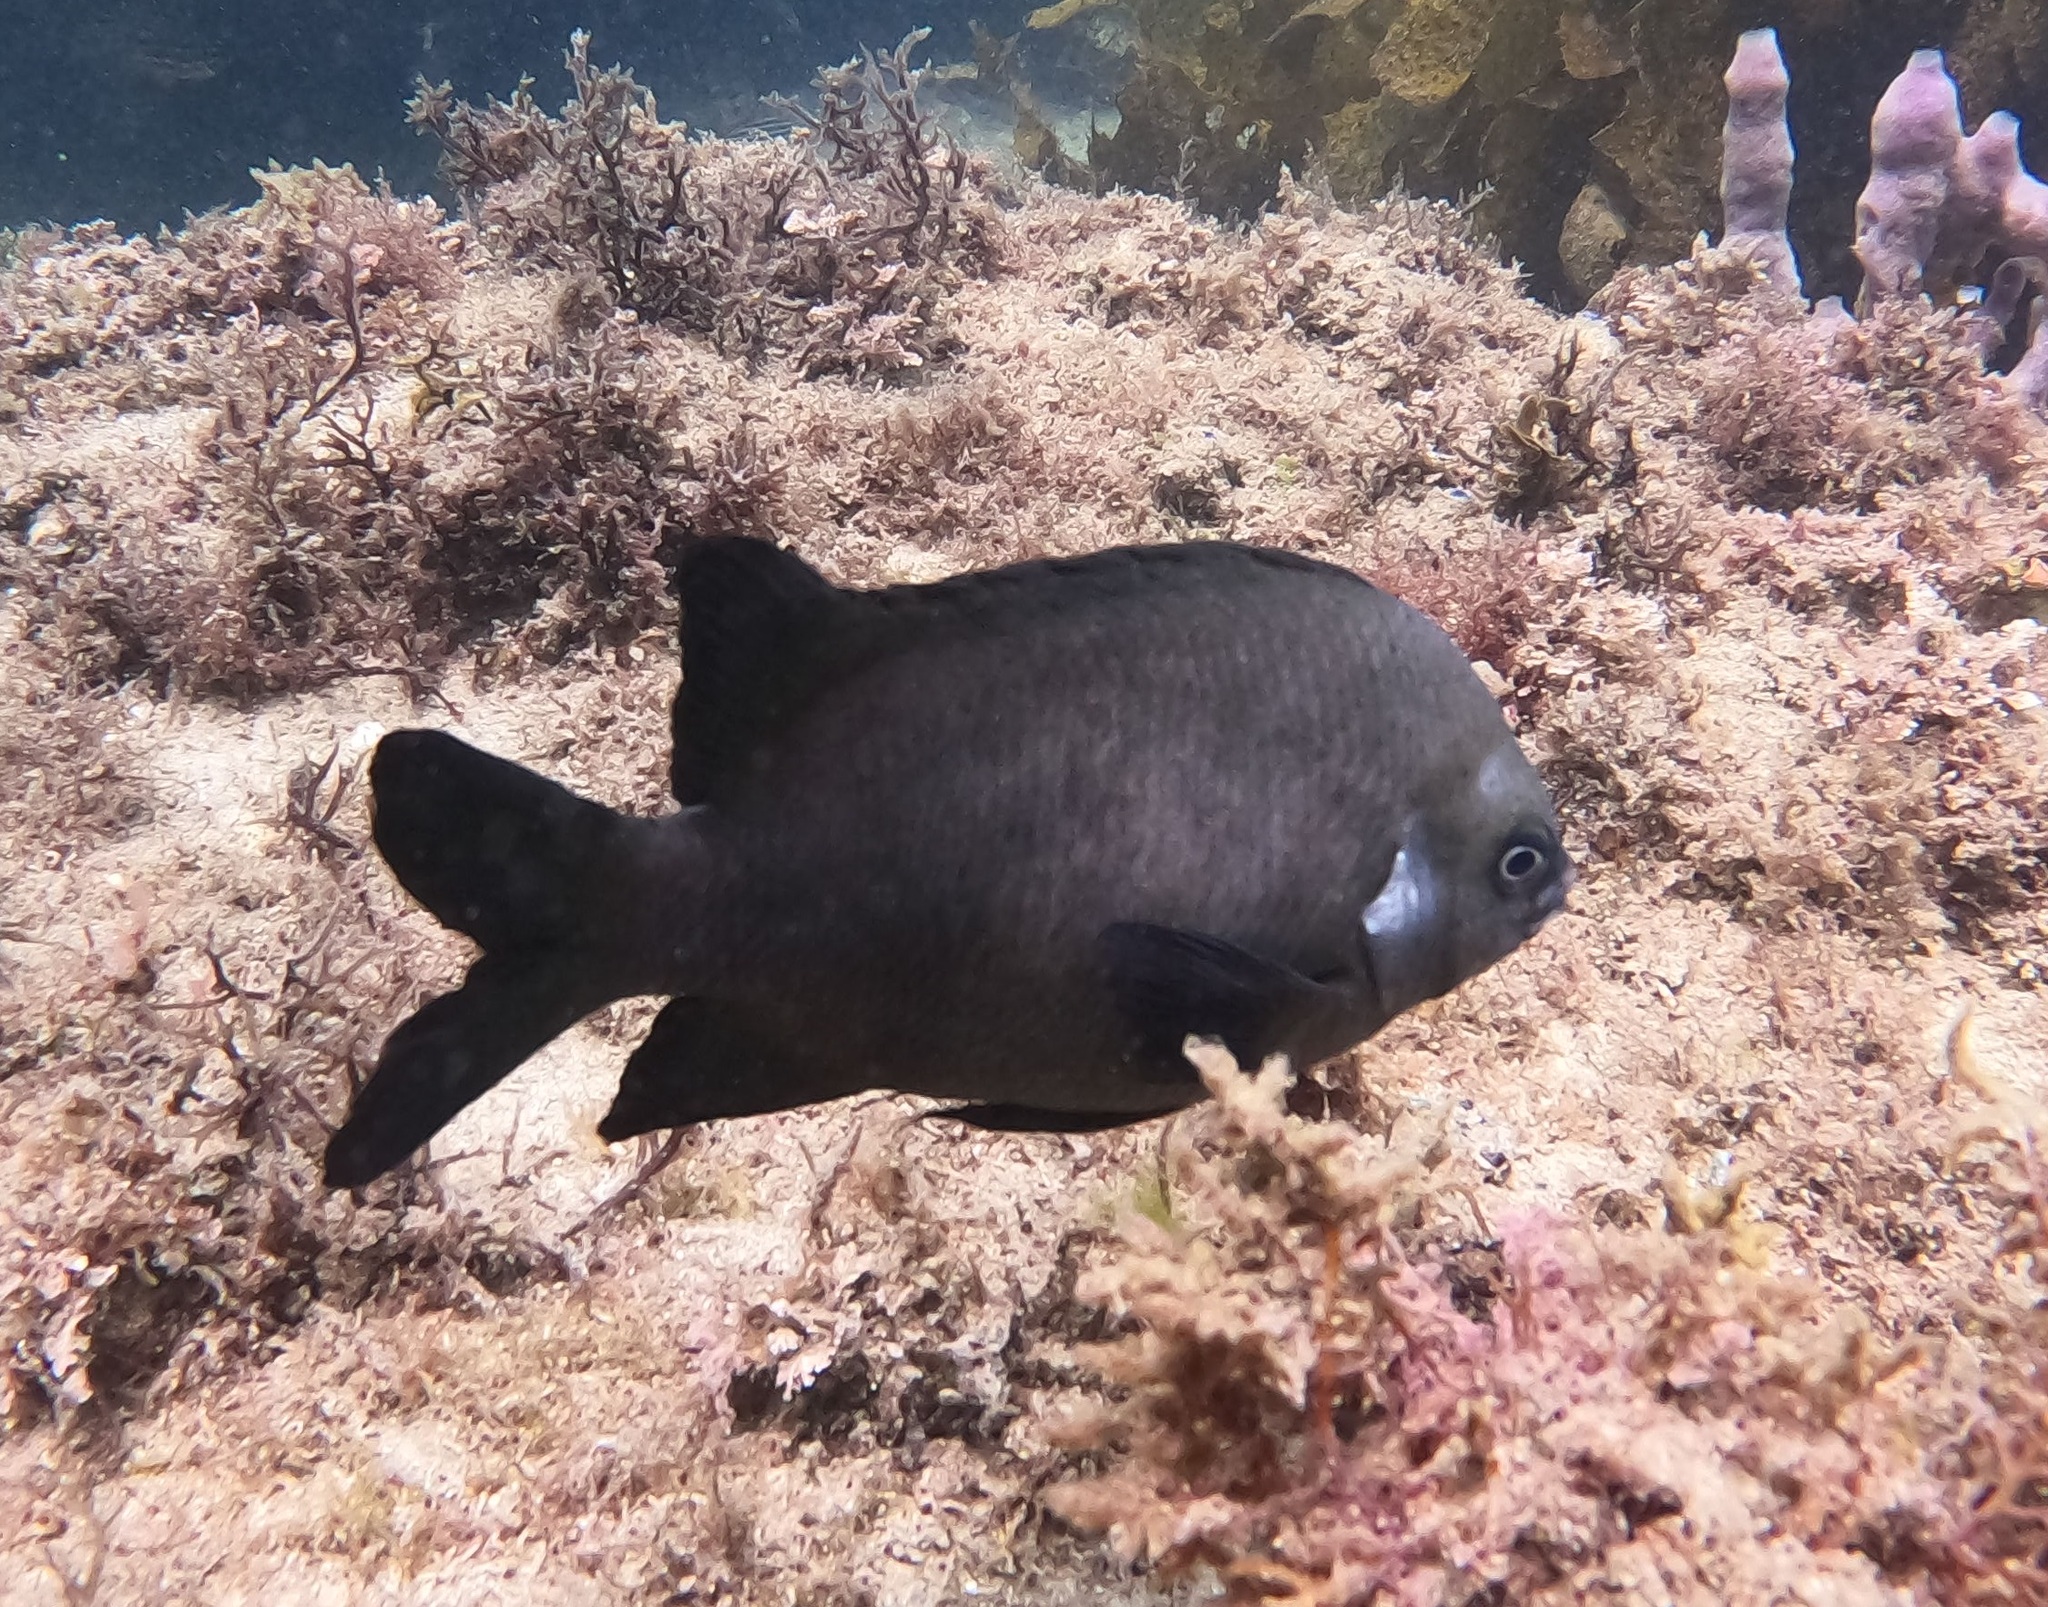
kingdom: Animalia
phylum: Chordata
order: Perciformes
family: Pomacentridae
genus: Parma
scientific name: Parma microlepis
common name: White-ear
